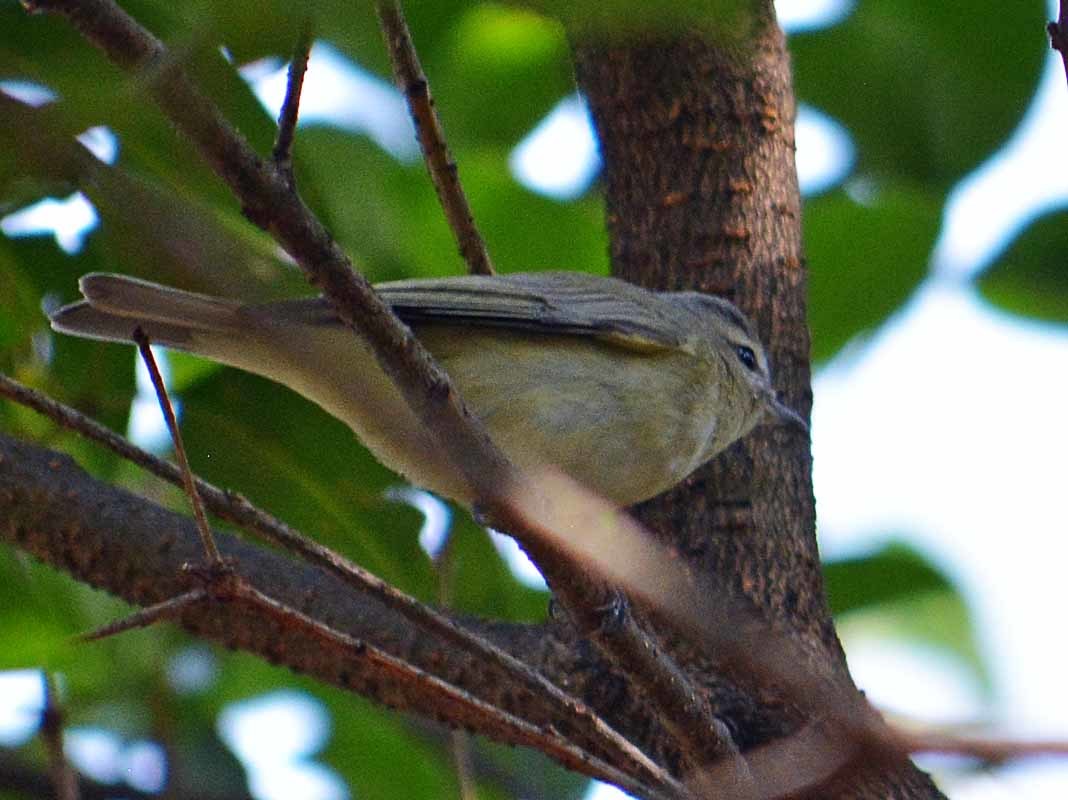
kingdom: Animalia
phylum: Chordata
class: Aves
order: Passeriformes
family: Vireonidae
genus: Vireo
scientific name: Vireo gilvus
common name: Warbling vireo
